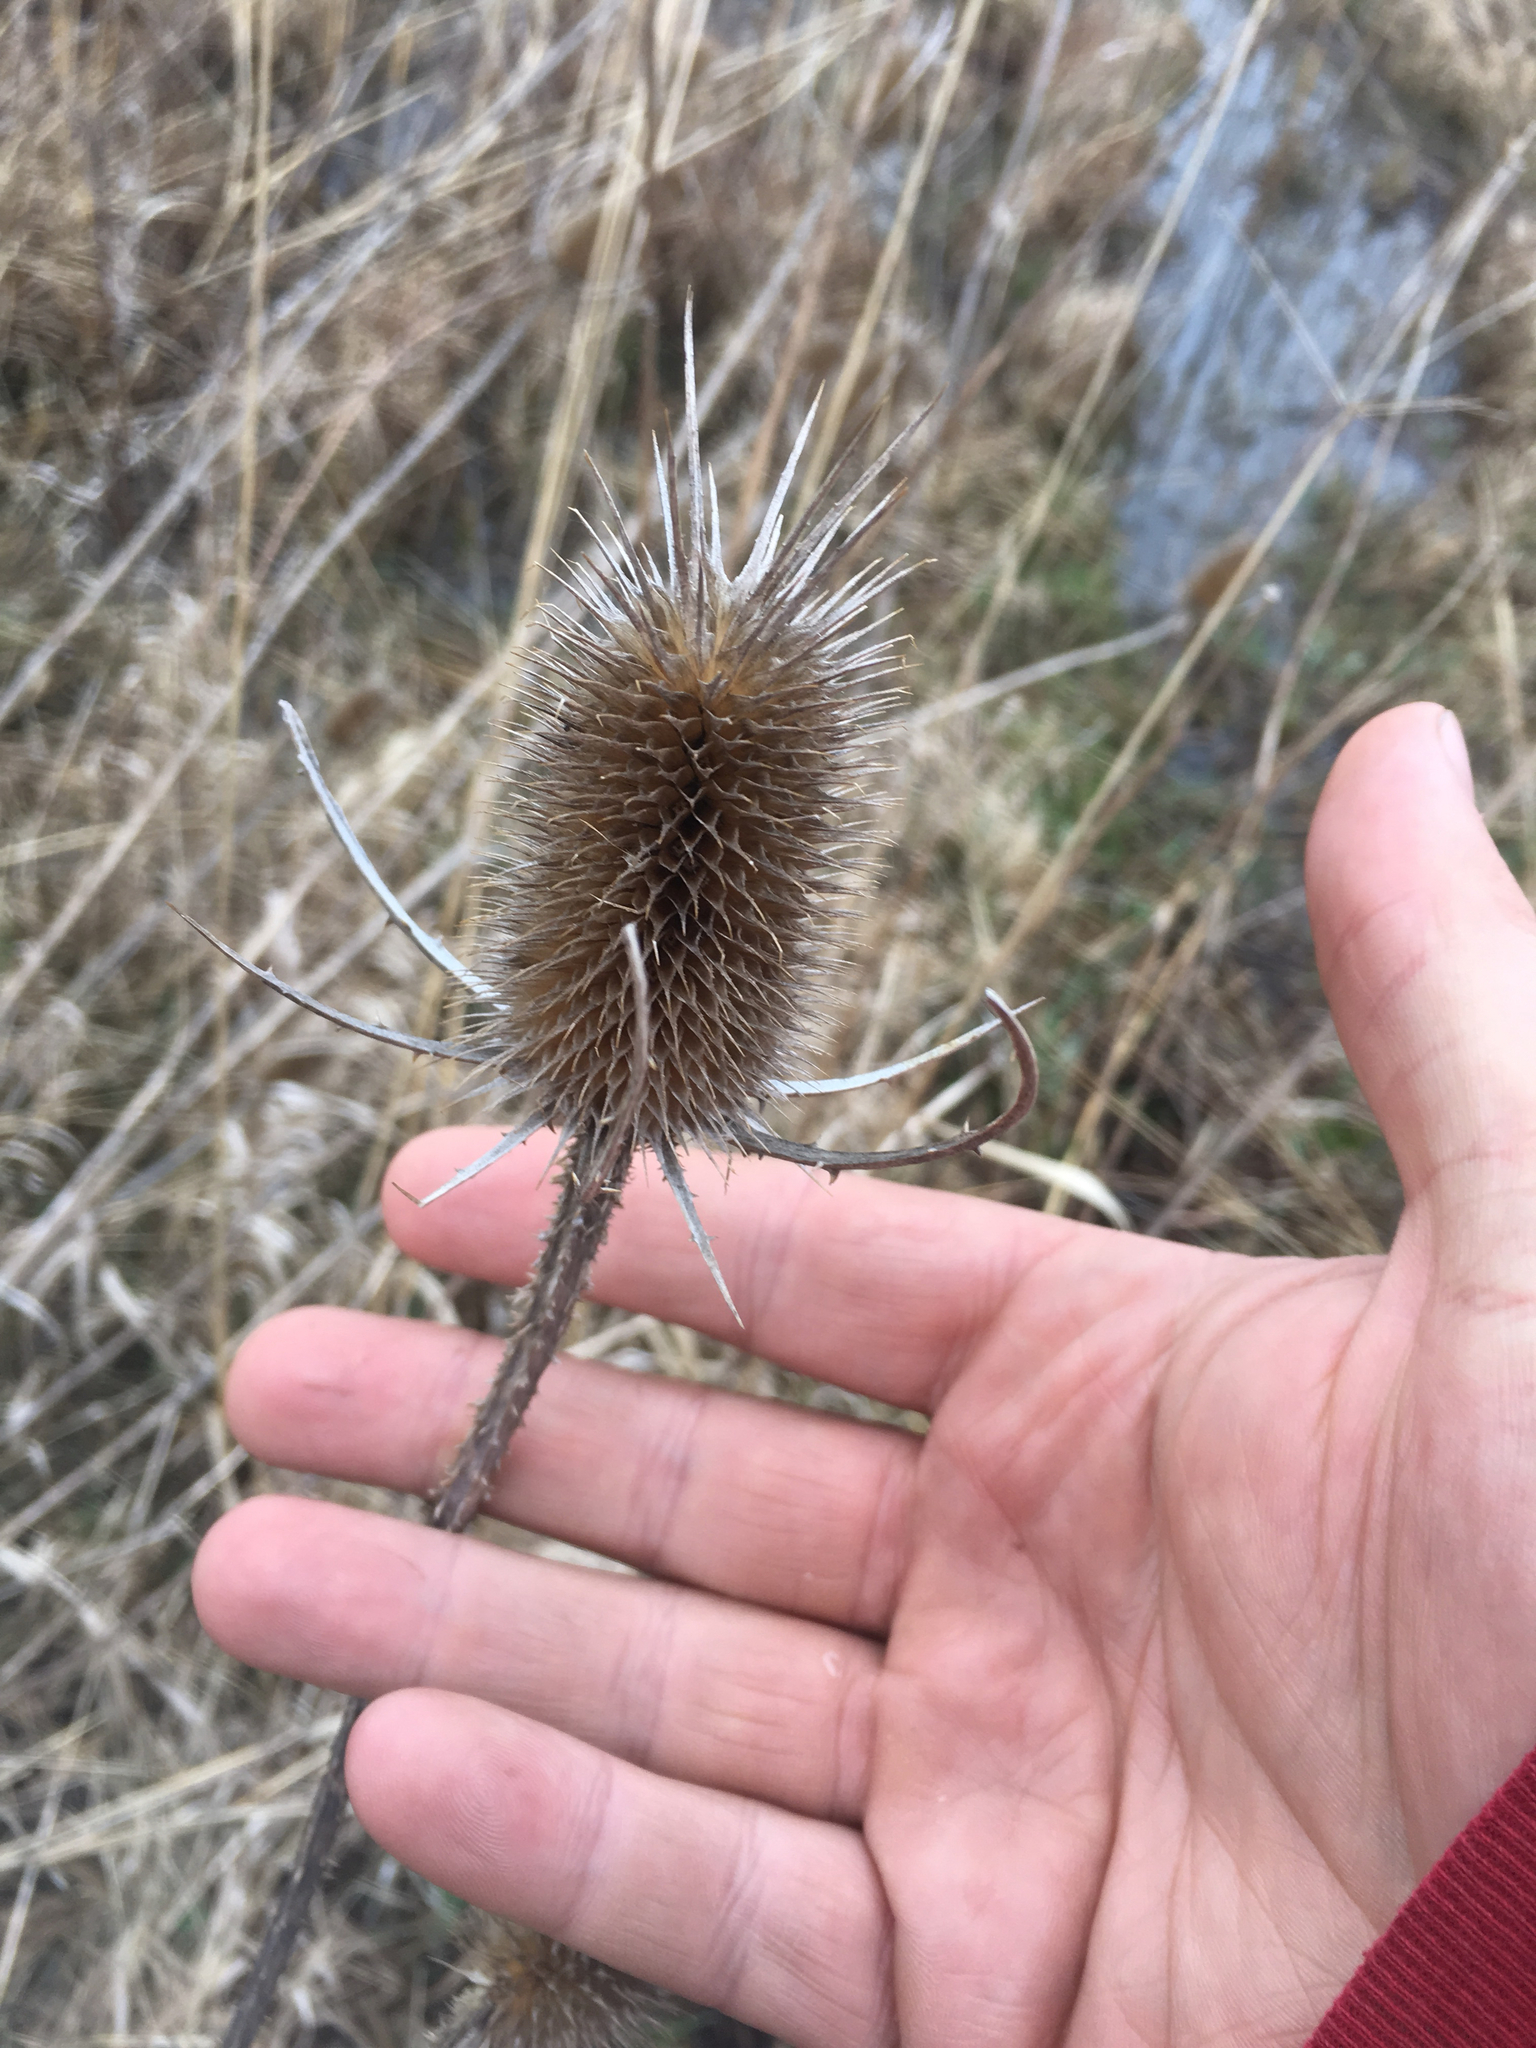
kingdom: Plantae
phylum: Tracheophyta
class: Magnoliopsida
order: Dipsacales
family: Caprifoliaceae
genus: Dipsacus
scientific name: Dipsacus fullonum
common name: Teasel
